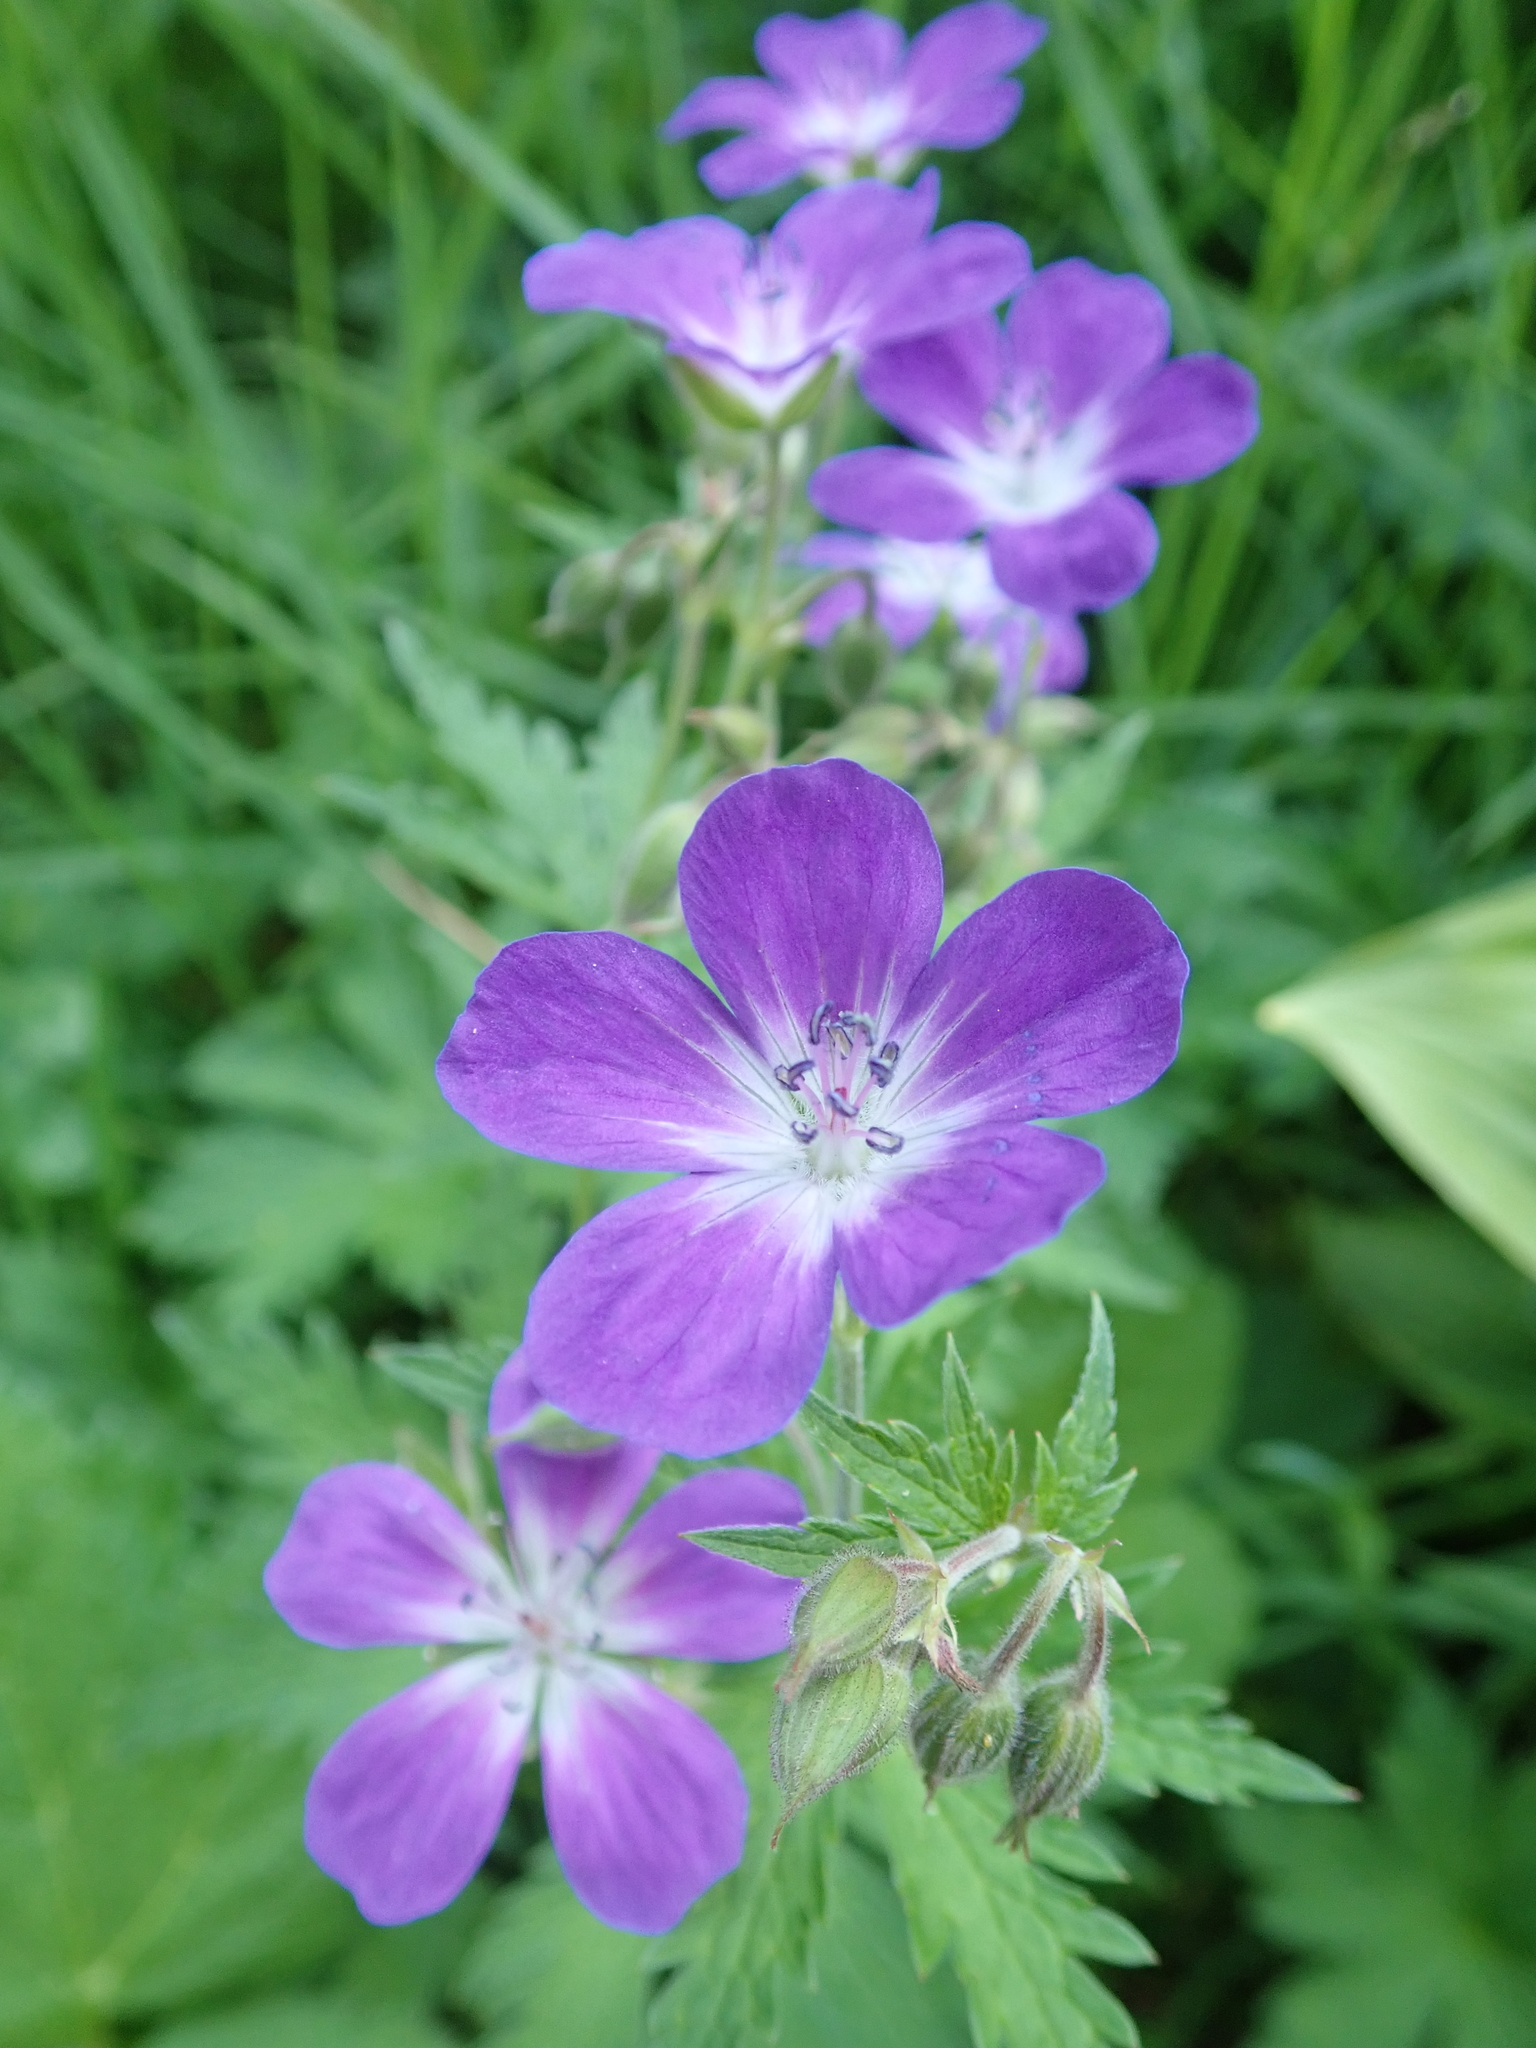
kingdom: Plantae
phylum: Tracheophyta
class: Magnoliopsida
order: Geraniales
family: Geraniaceae
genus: Geranium
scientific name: Geranium sylvaticum
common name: Wood crane's-bill
